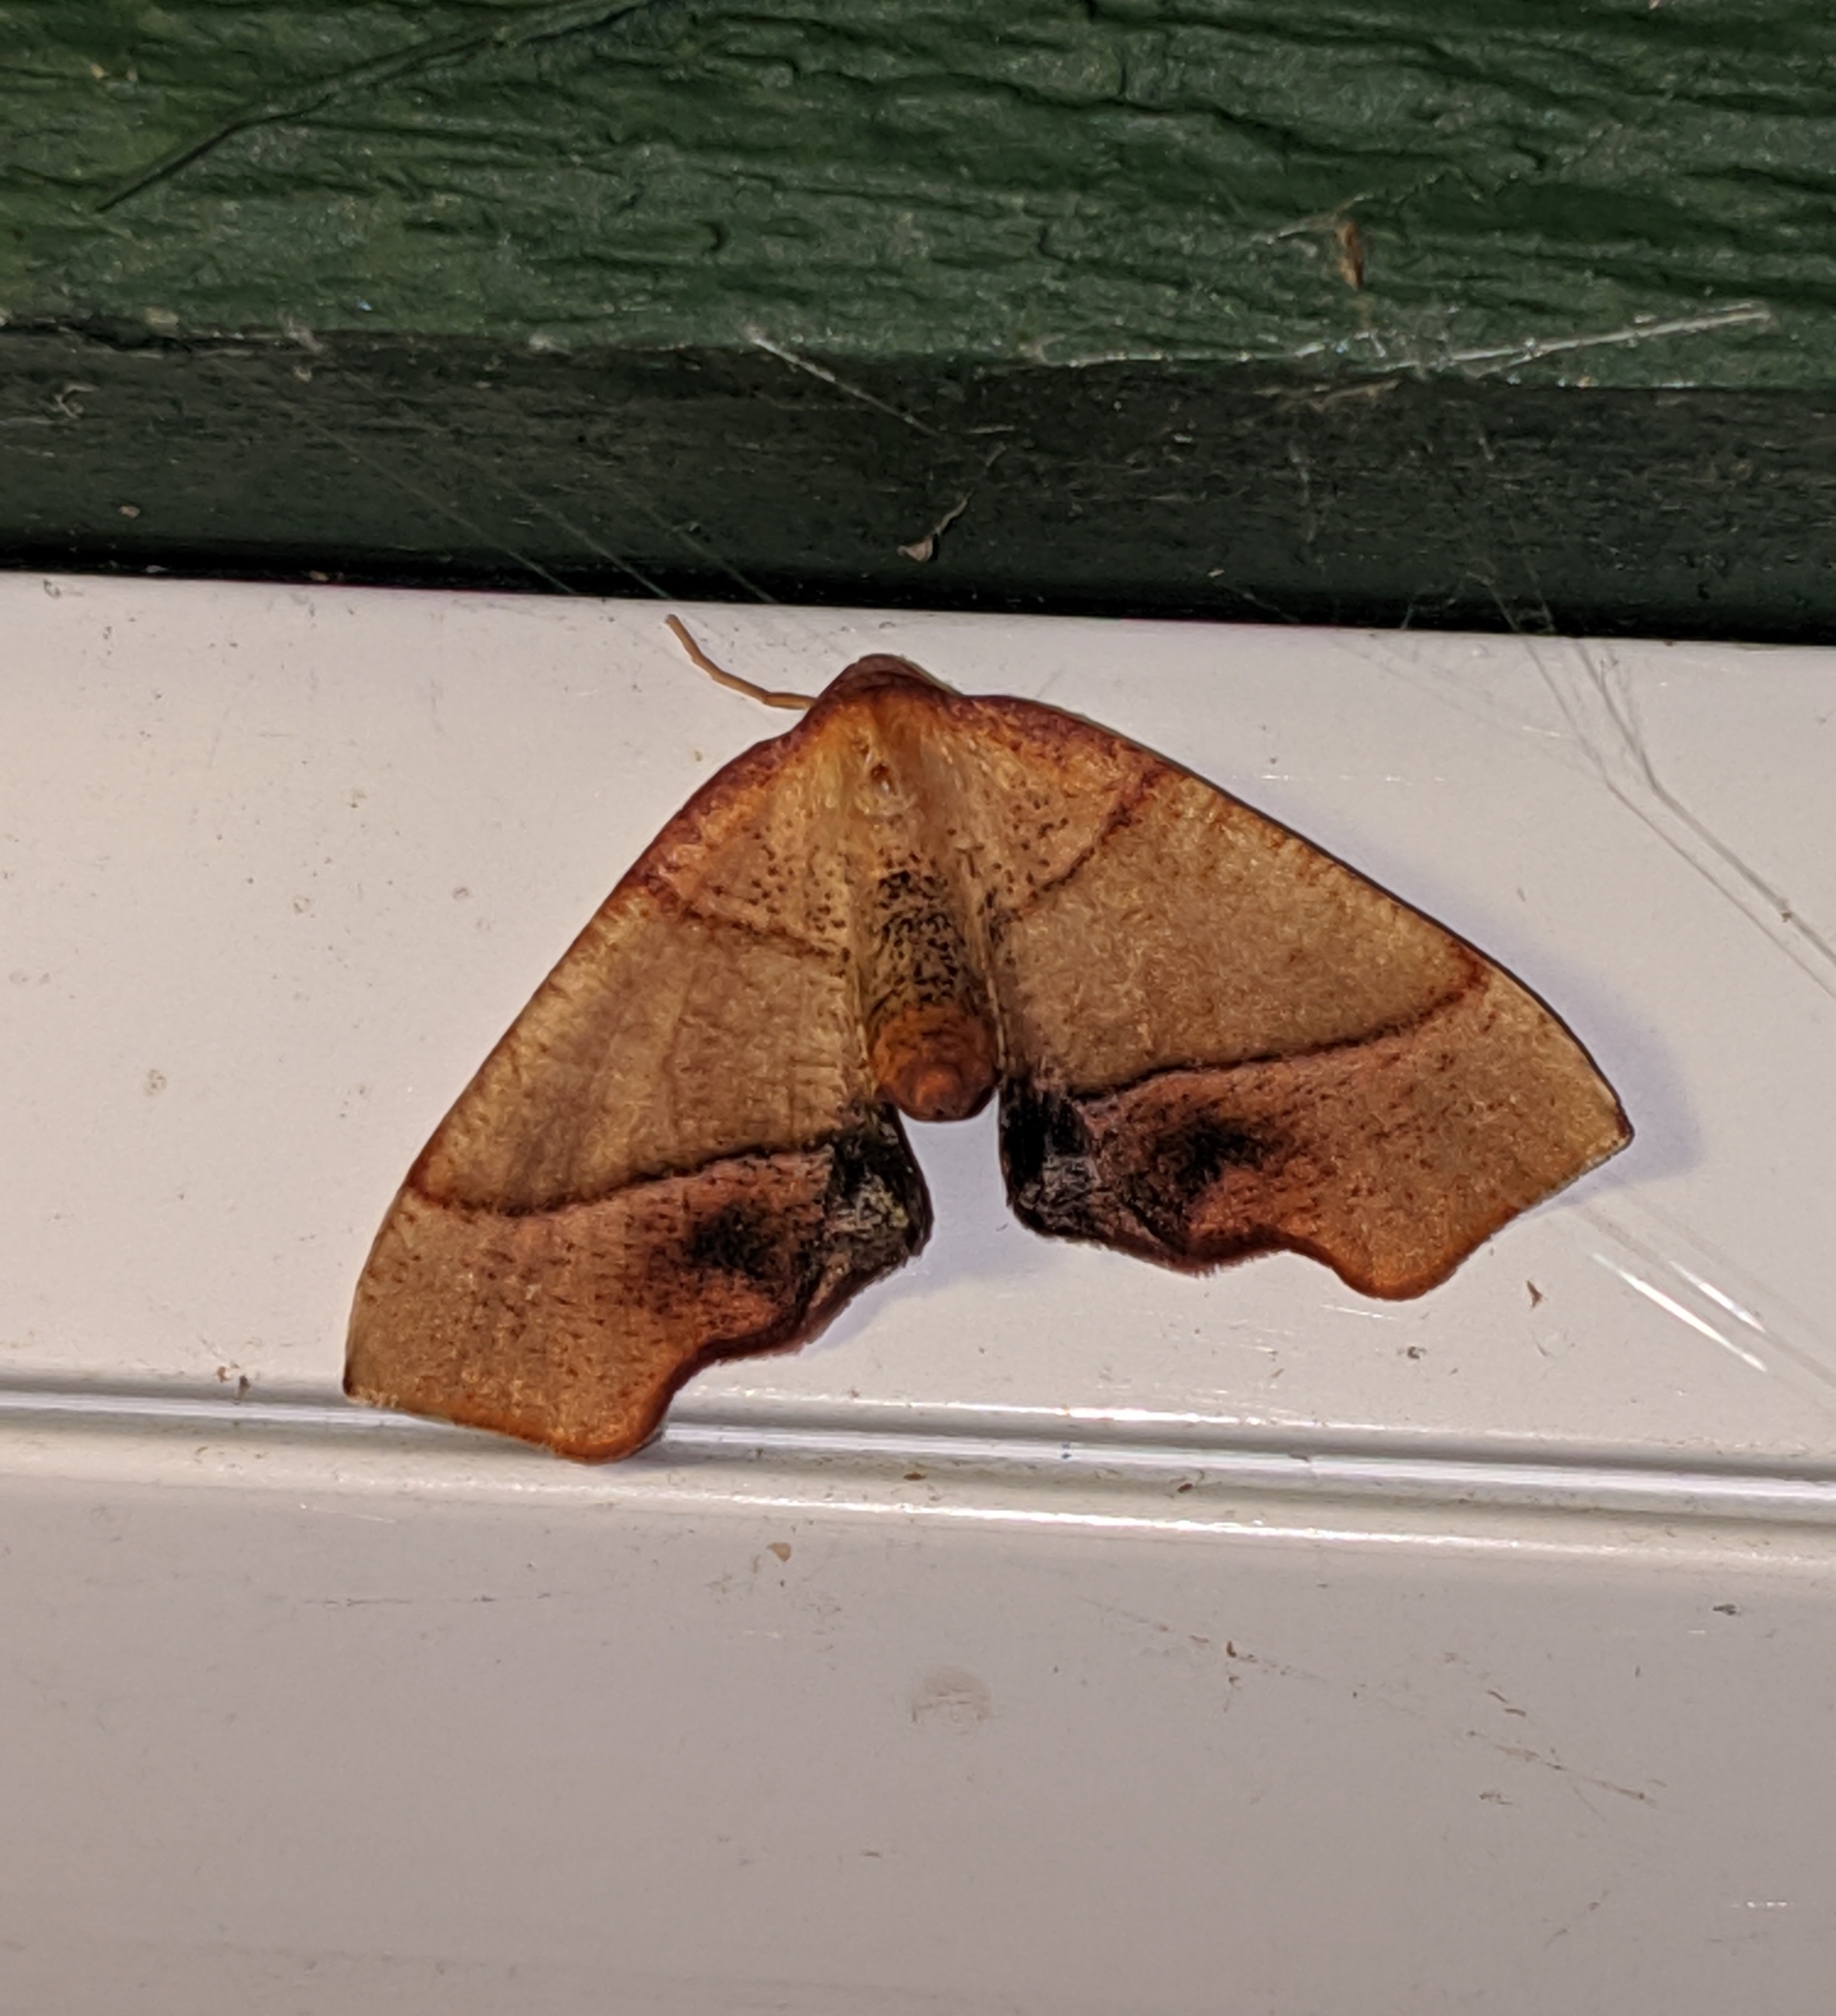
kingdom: Animalia
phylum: Arthropoda
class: Insecta
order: Lepidoptera
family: Geometridae
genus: Plagodis
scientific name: Plagodis phlogosaria
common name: Straight-lined plagodis
